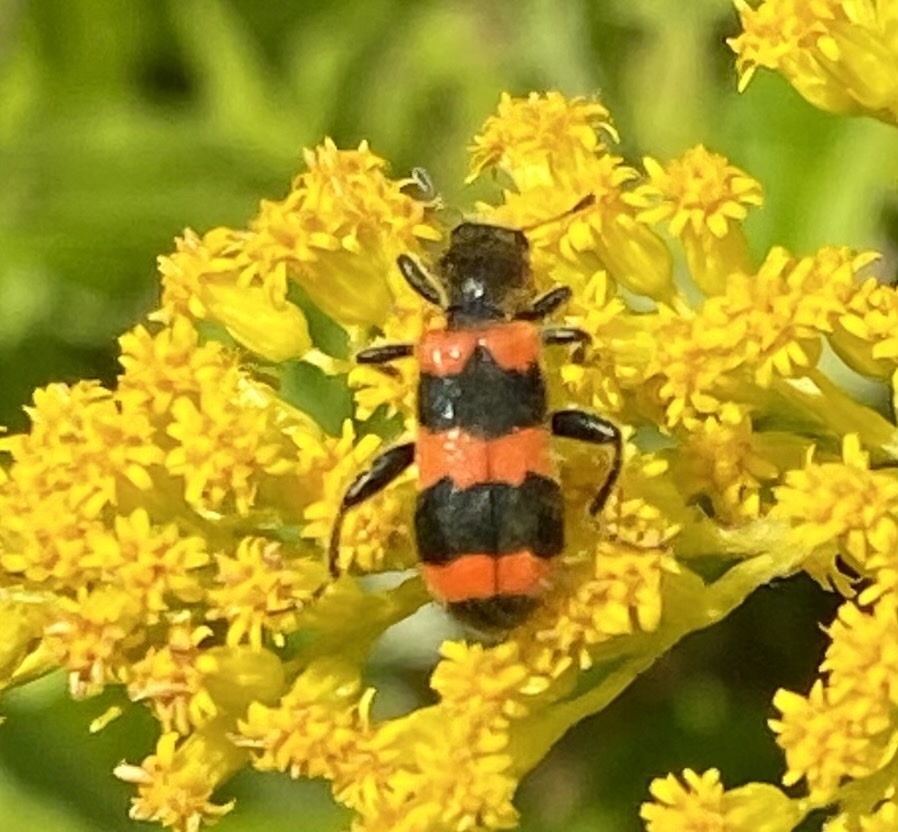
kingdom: Animalia
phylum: Arthropoda
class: Insecta
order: Coleoptera
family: Cleridae
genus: Trichodes
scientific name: Trichodes apiarius
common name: Bee-eating beetle
